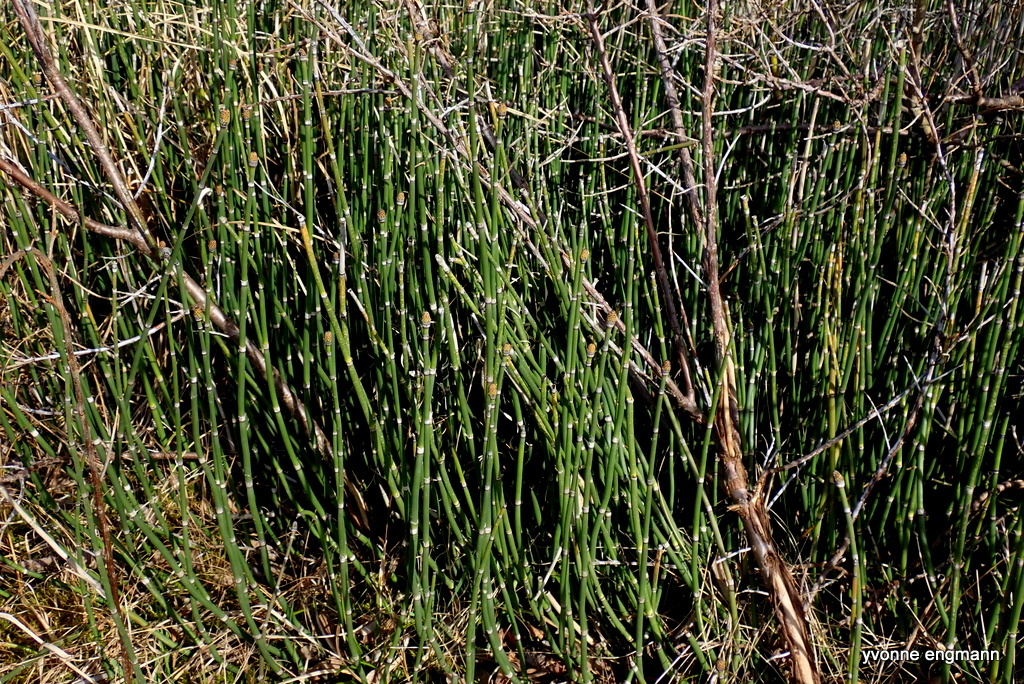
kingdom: Plantae
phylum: Tracheophyta
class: Polypodiopsida
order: Equisetales
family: Equisetaceae
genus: Equisetum
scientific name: Equisetum hyemale
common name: Rough horsetail
